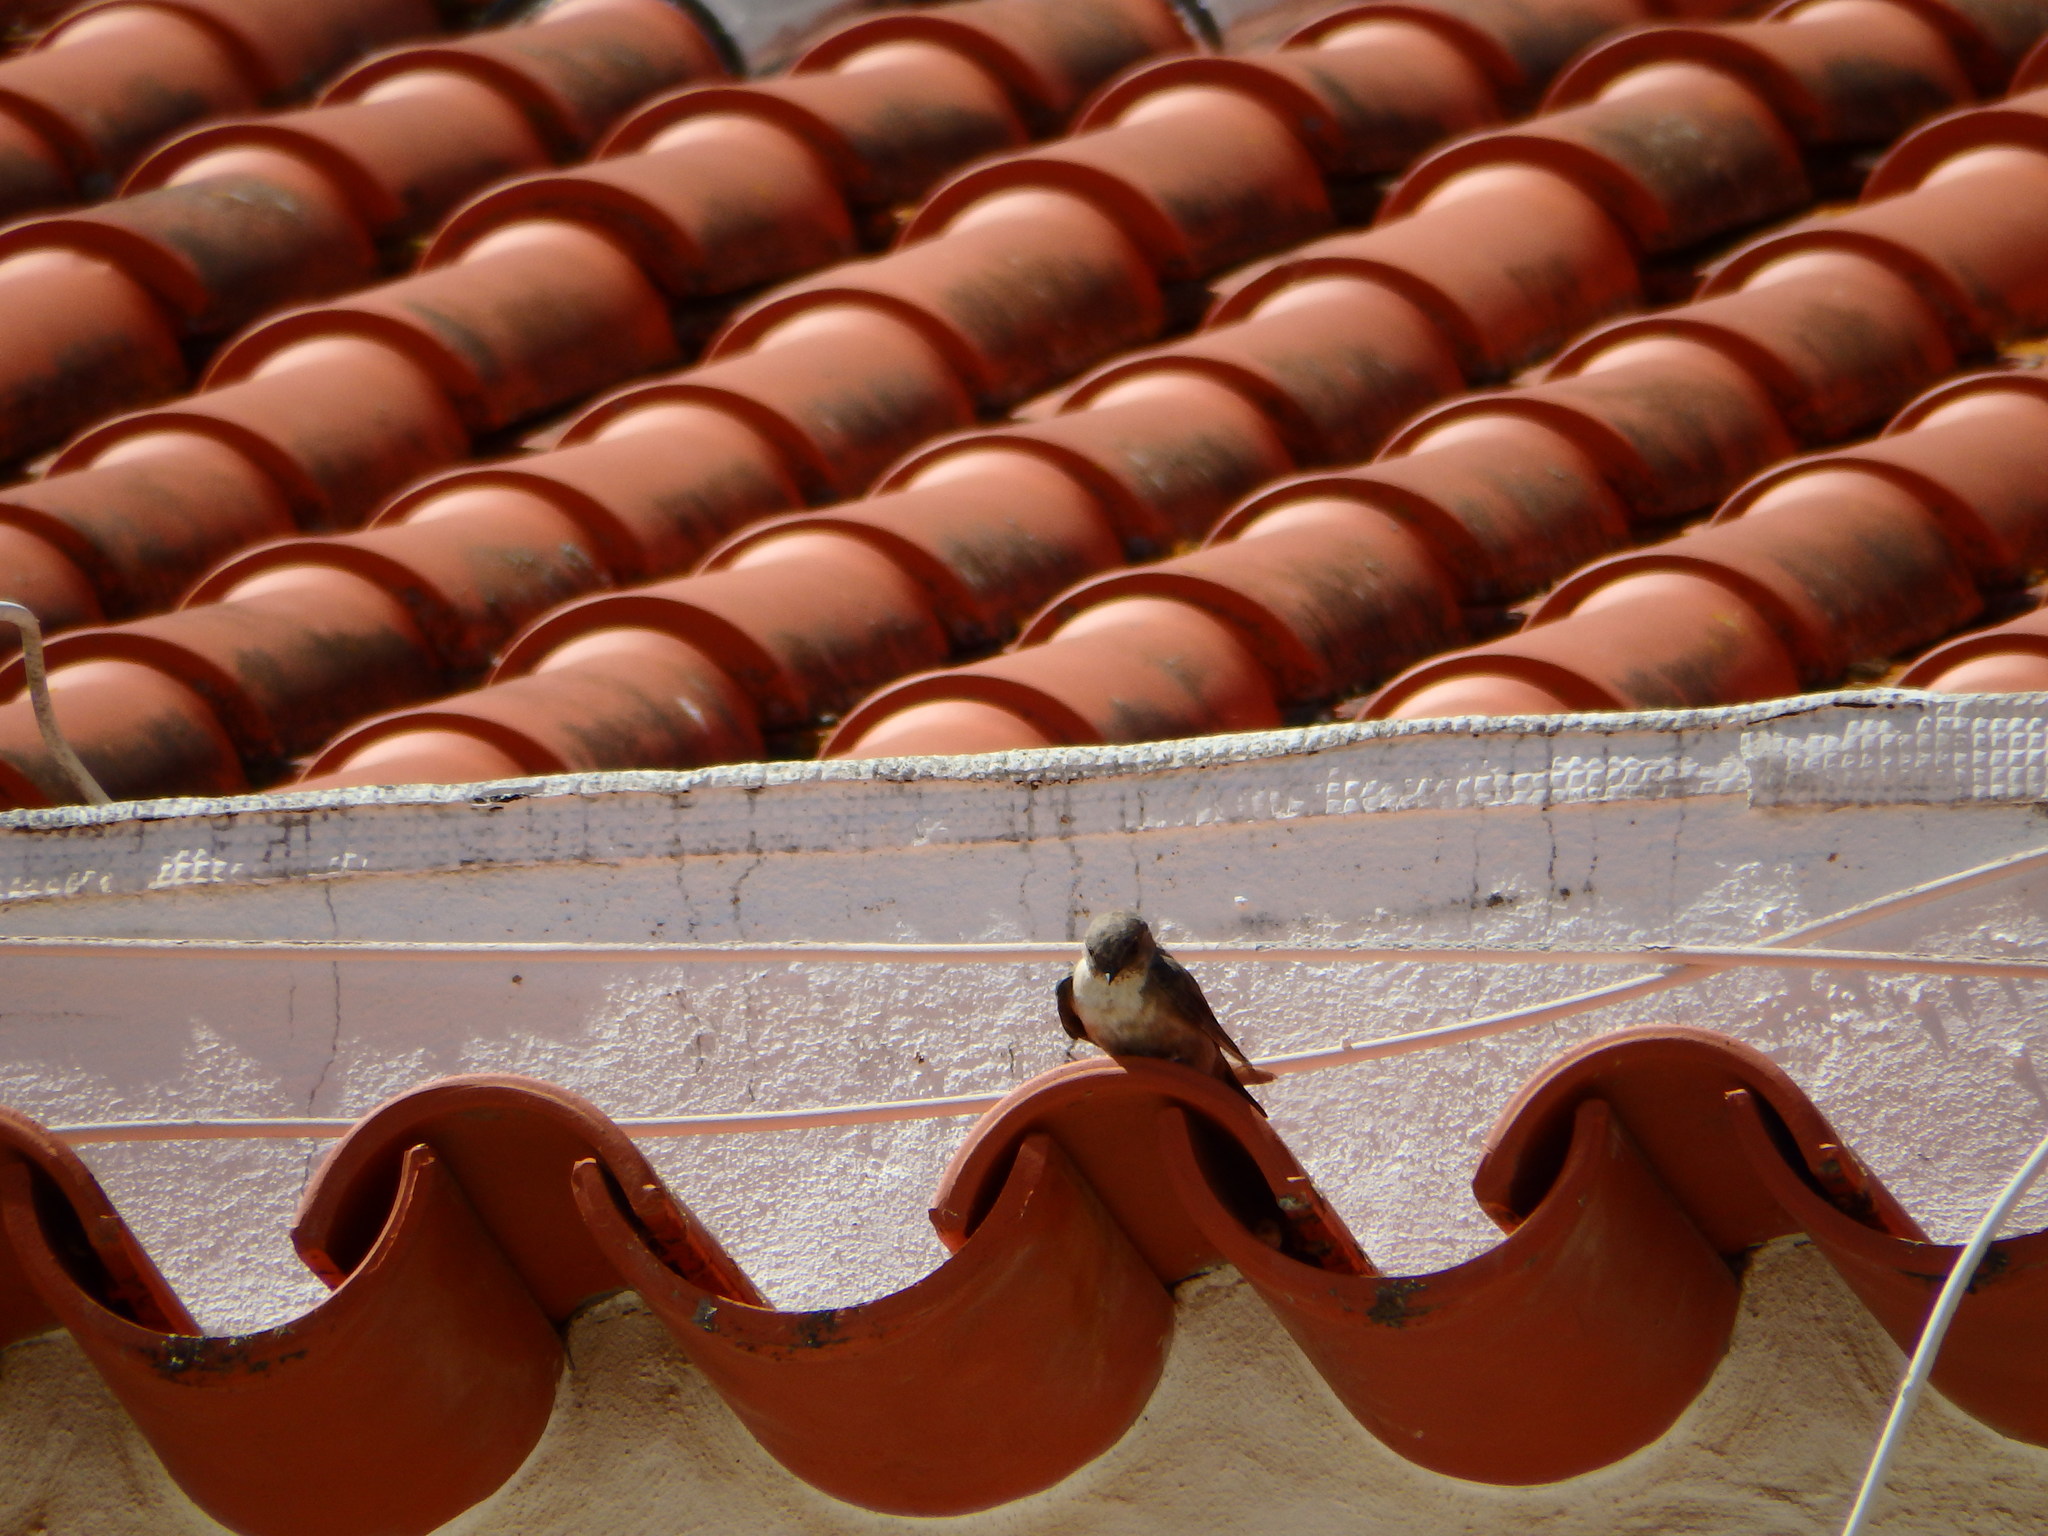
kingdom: Animalia
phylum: Chordata
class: Aves
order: Passeriformes
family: Hirundinidae
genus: Ptyonoprogne
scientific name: Ptyonoprogne rupestris
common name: Eurasian crag martin
